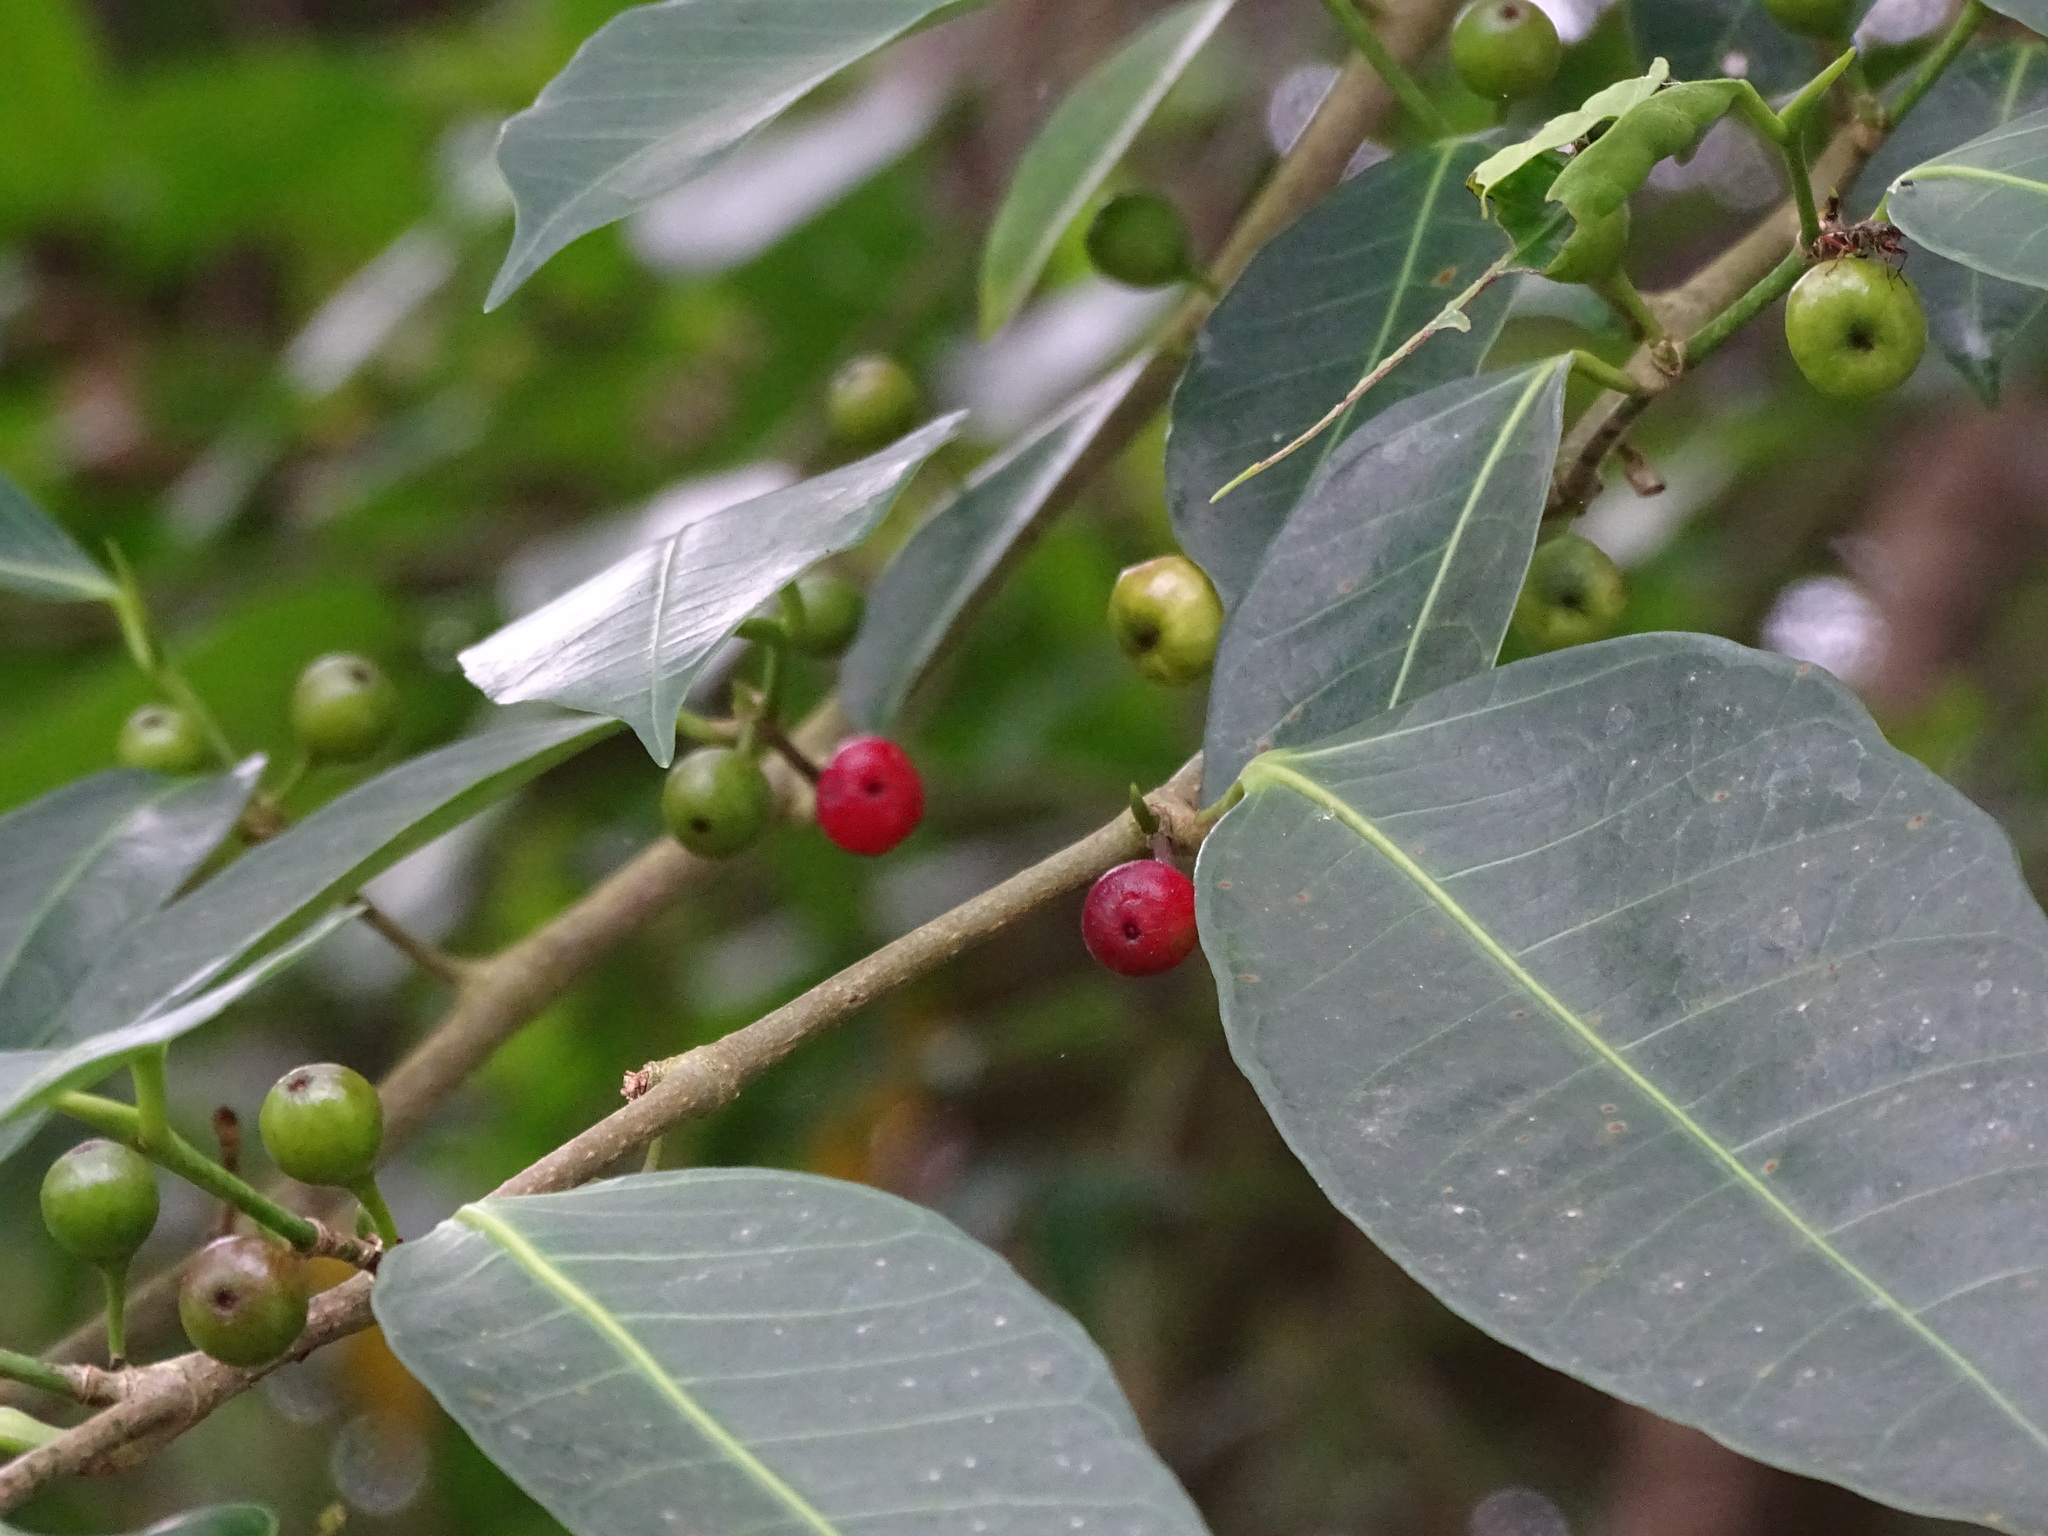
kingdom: Plantae
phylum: Tracheophyta
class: Magnoliopsida
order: Rosales
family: Moraceae
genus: Ficus
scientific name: Ficus virgata
